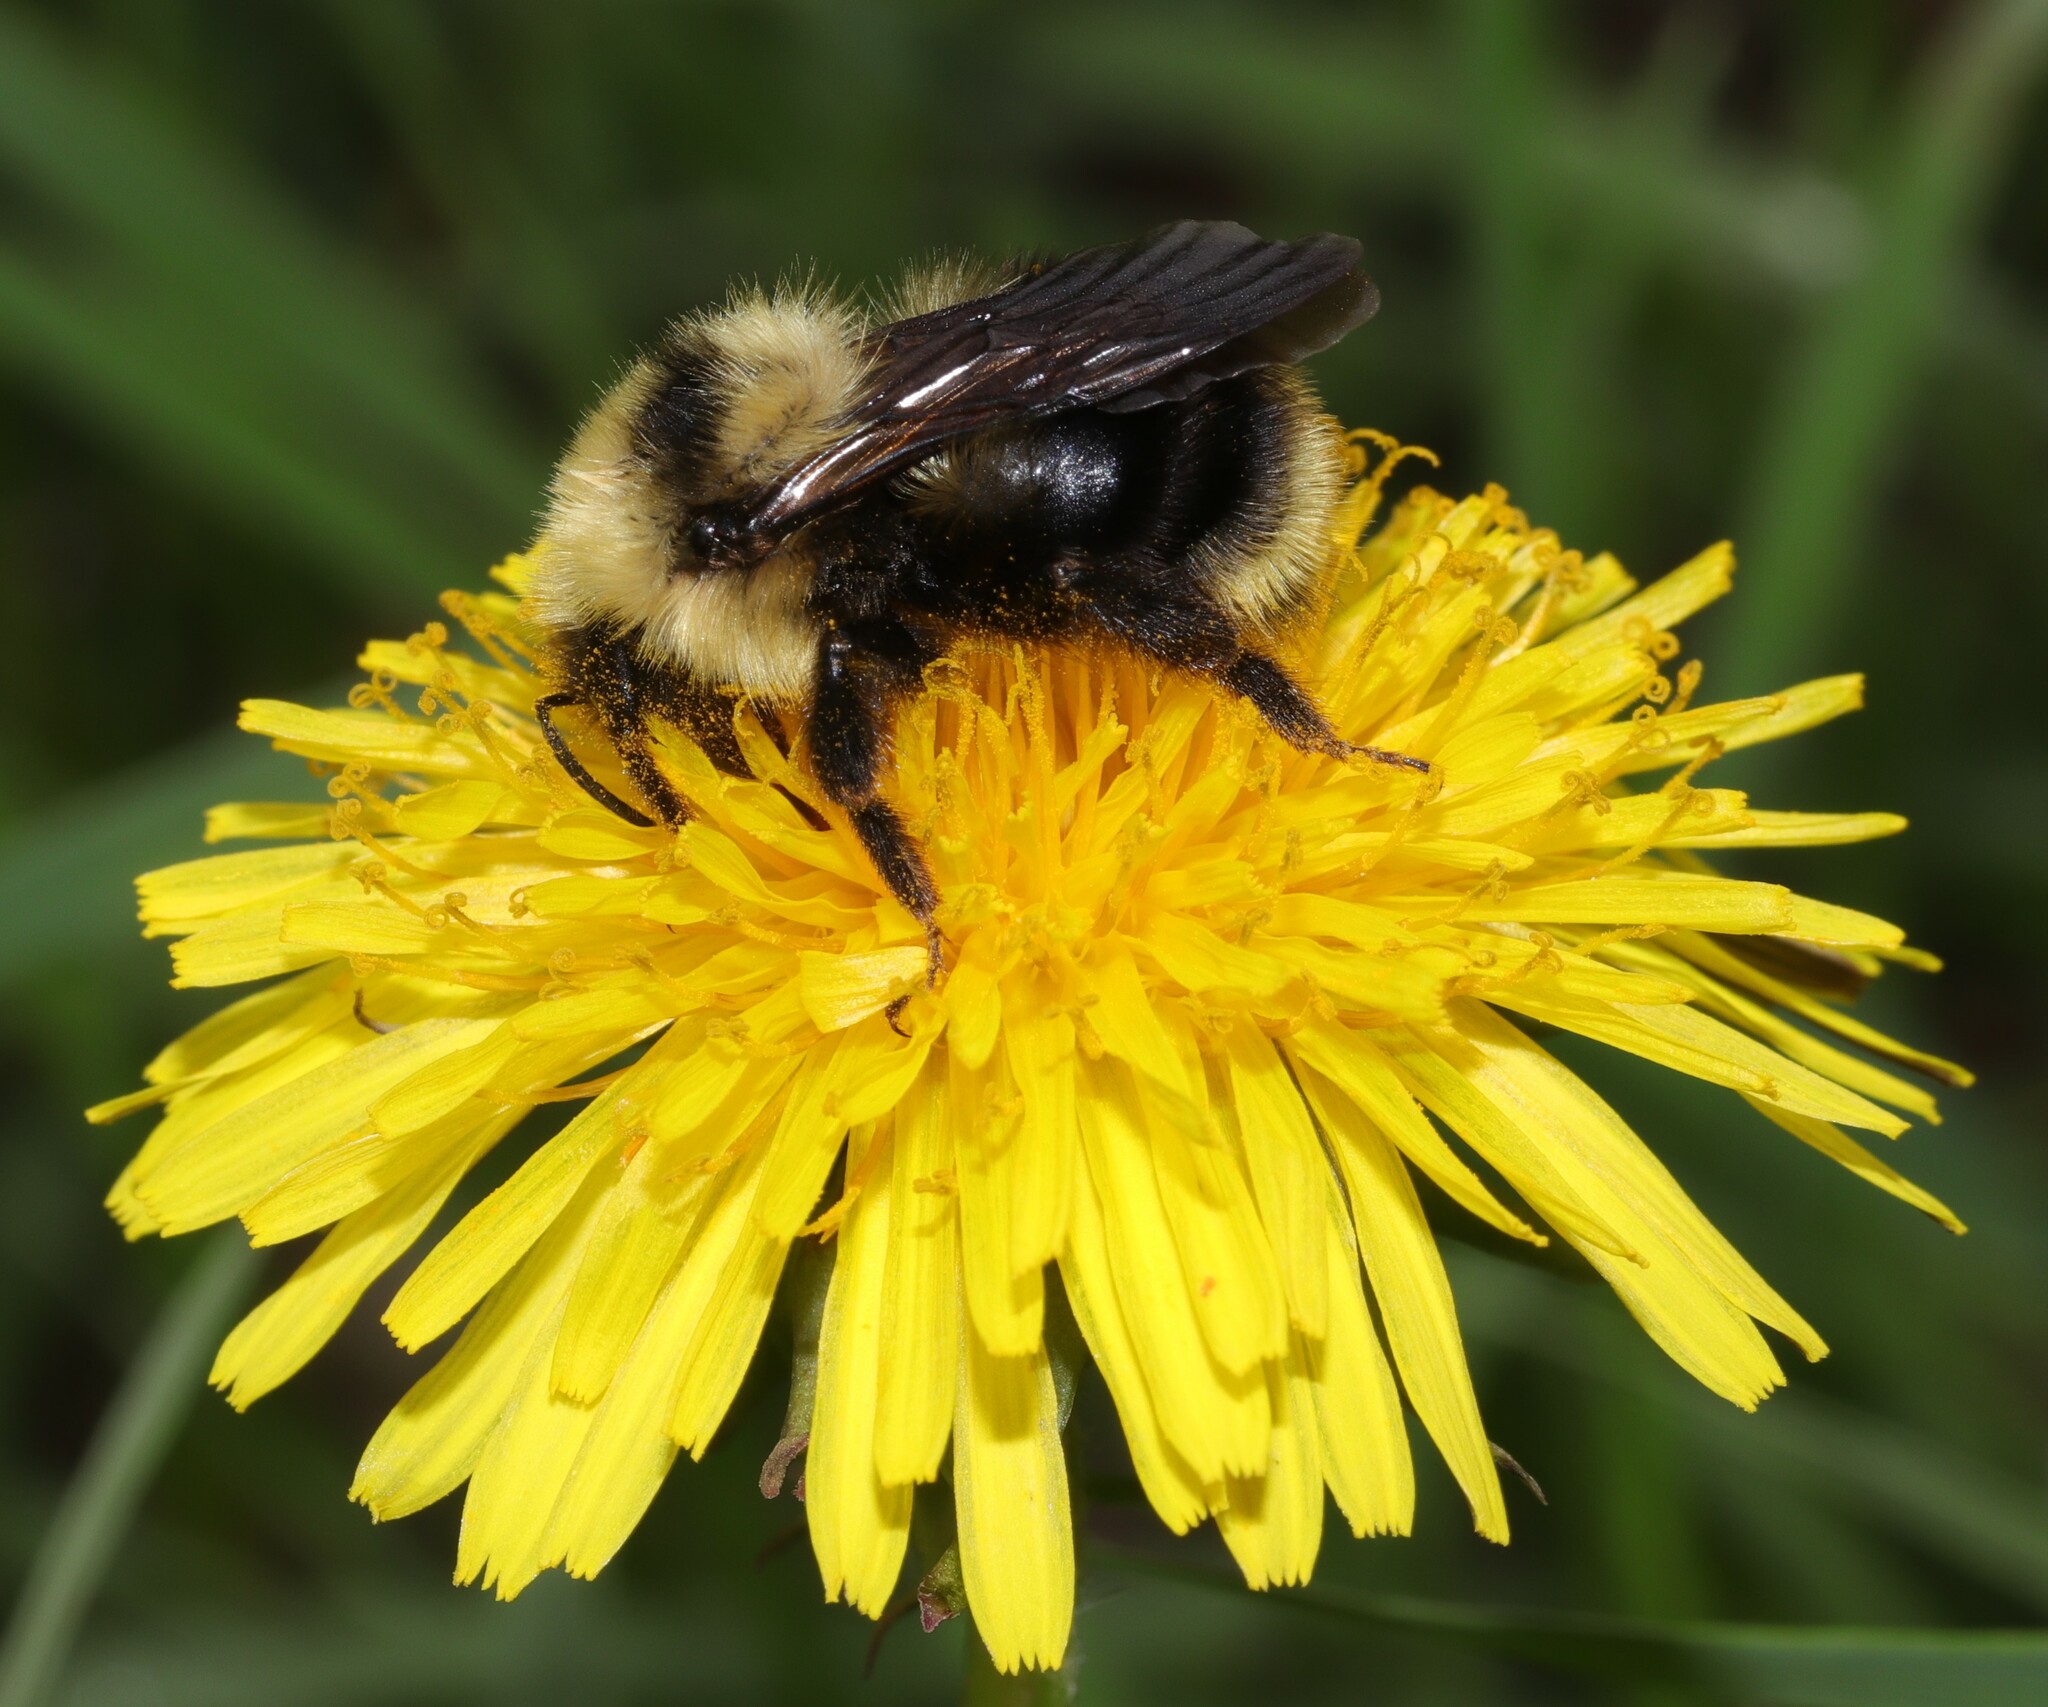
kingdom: Animalia
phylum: Arthropoda
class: Insecta
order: Hymenoptera
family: Apidae
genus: Bombus
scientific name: Bombus flavidus
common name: Fernald cuckoo bumble bee
